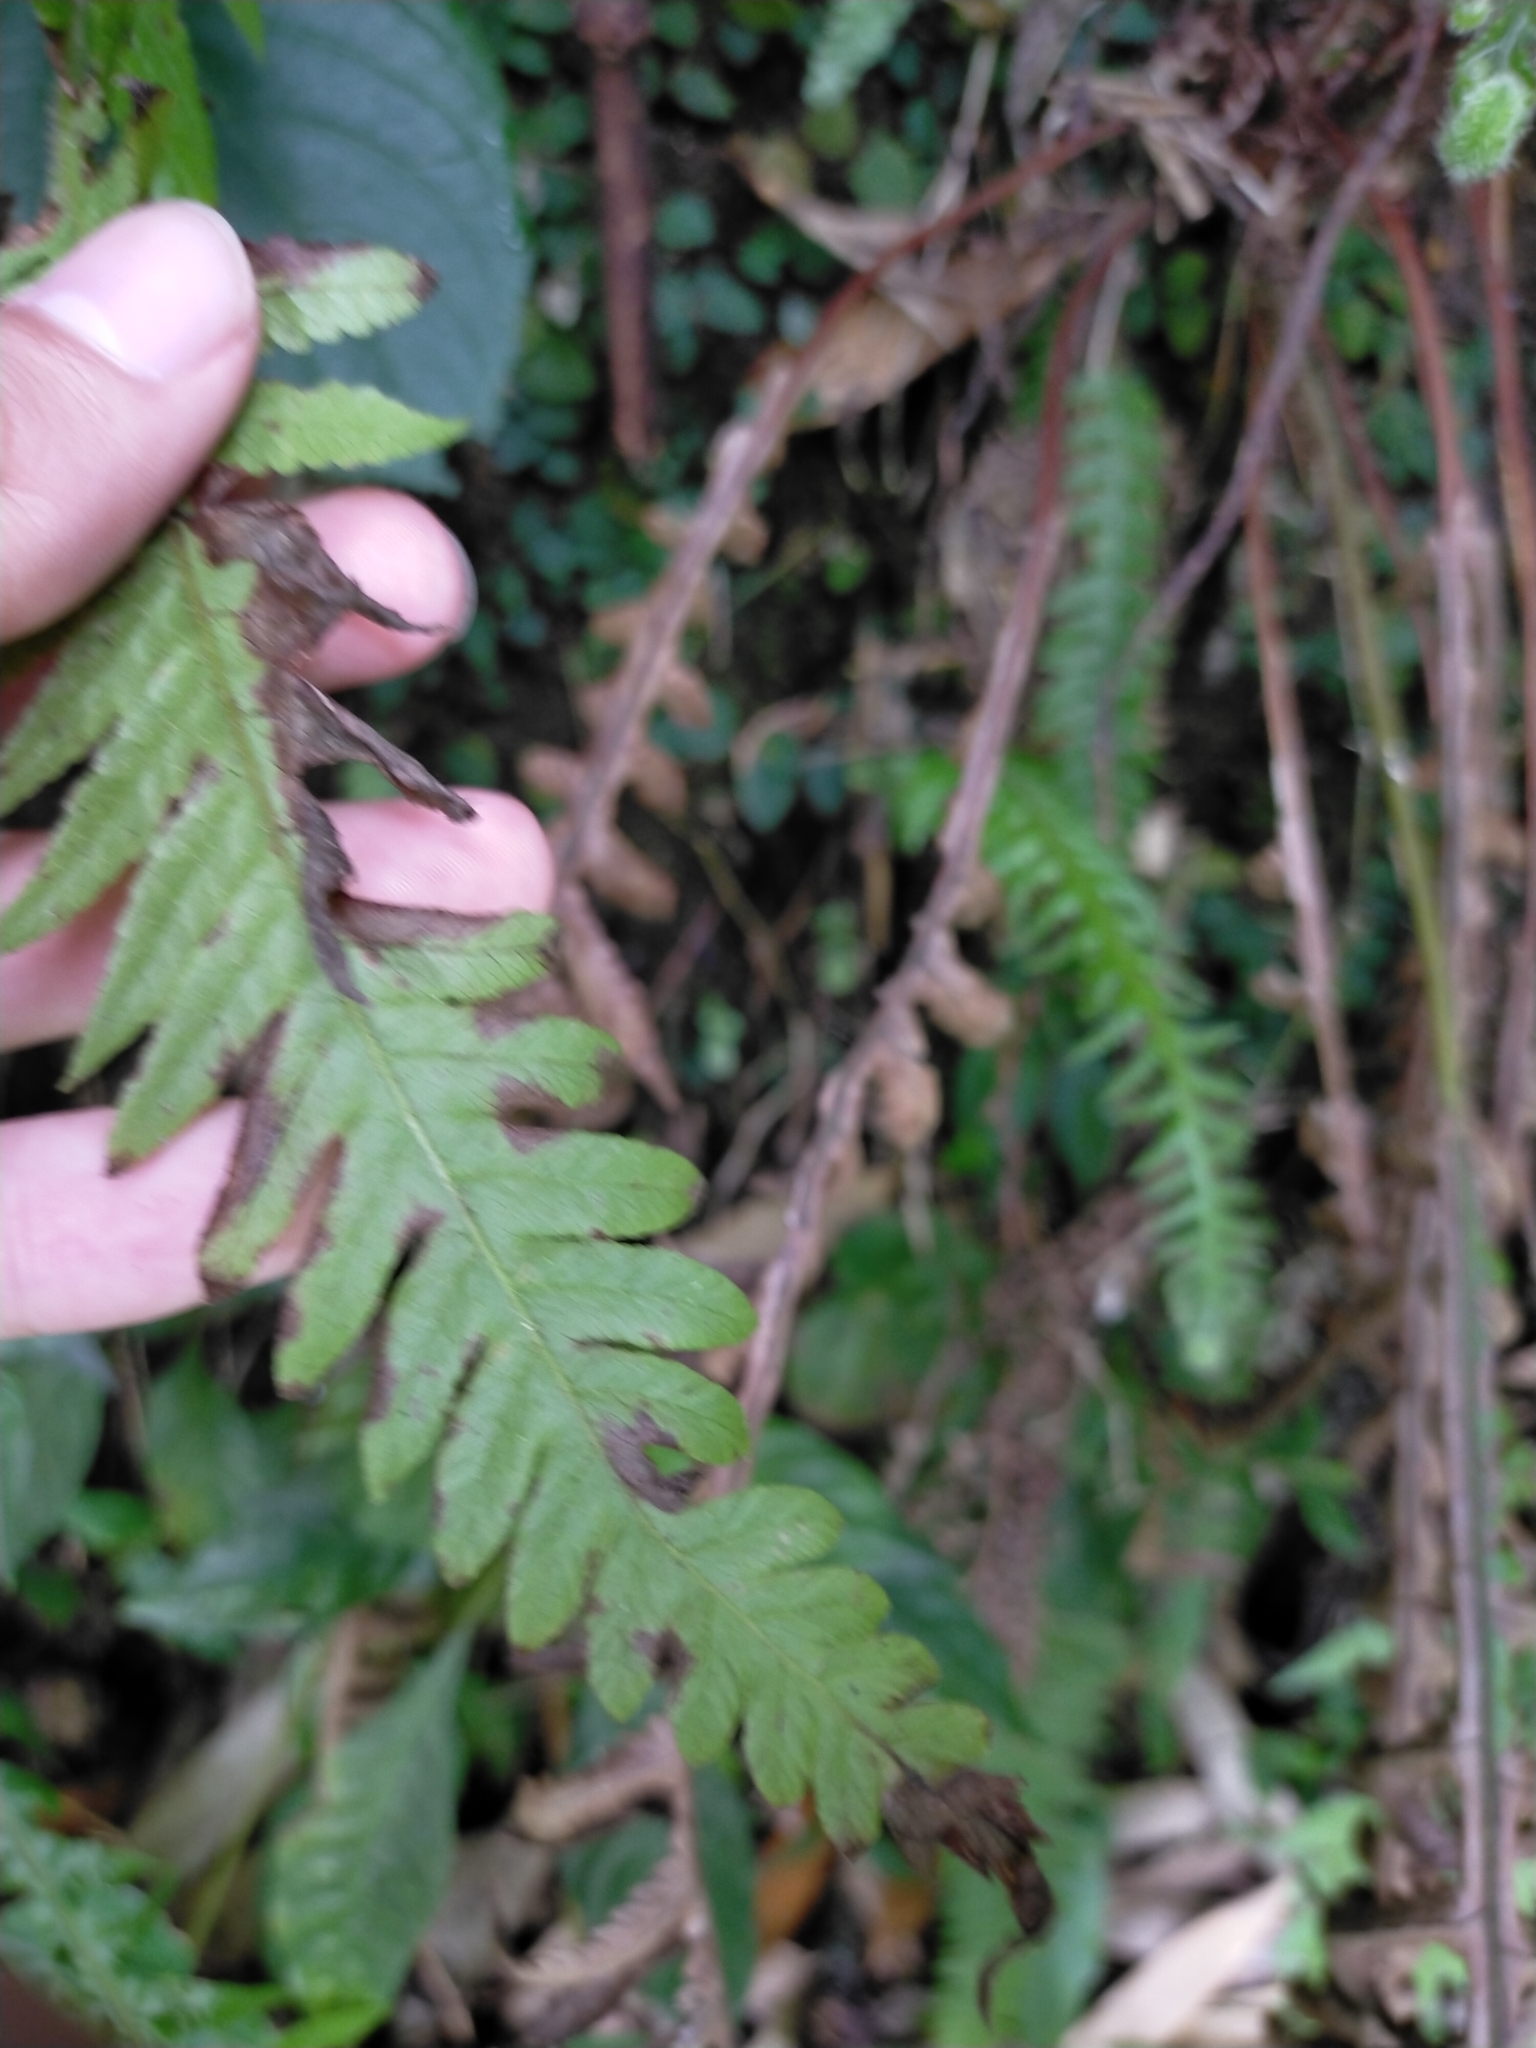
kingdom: Plantae
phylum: Tracheophyta
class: Polypodiopsida
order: Polypodiales
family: Thelypteridaceae
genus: Phegopteris
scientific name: Phegopteris decursive-pinnata
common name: Japanese beech fern
